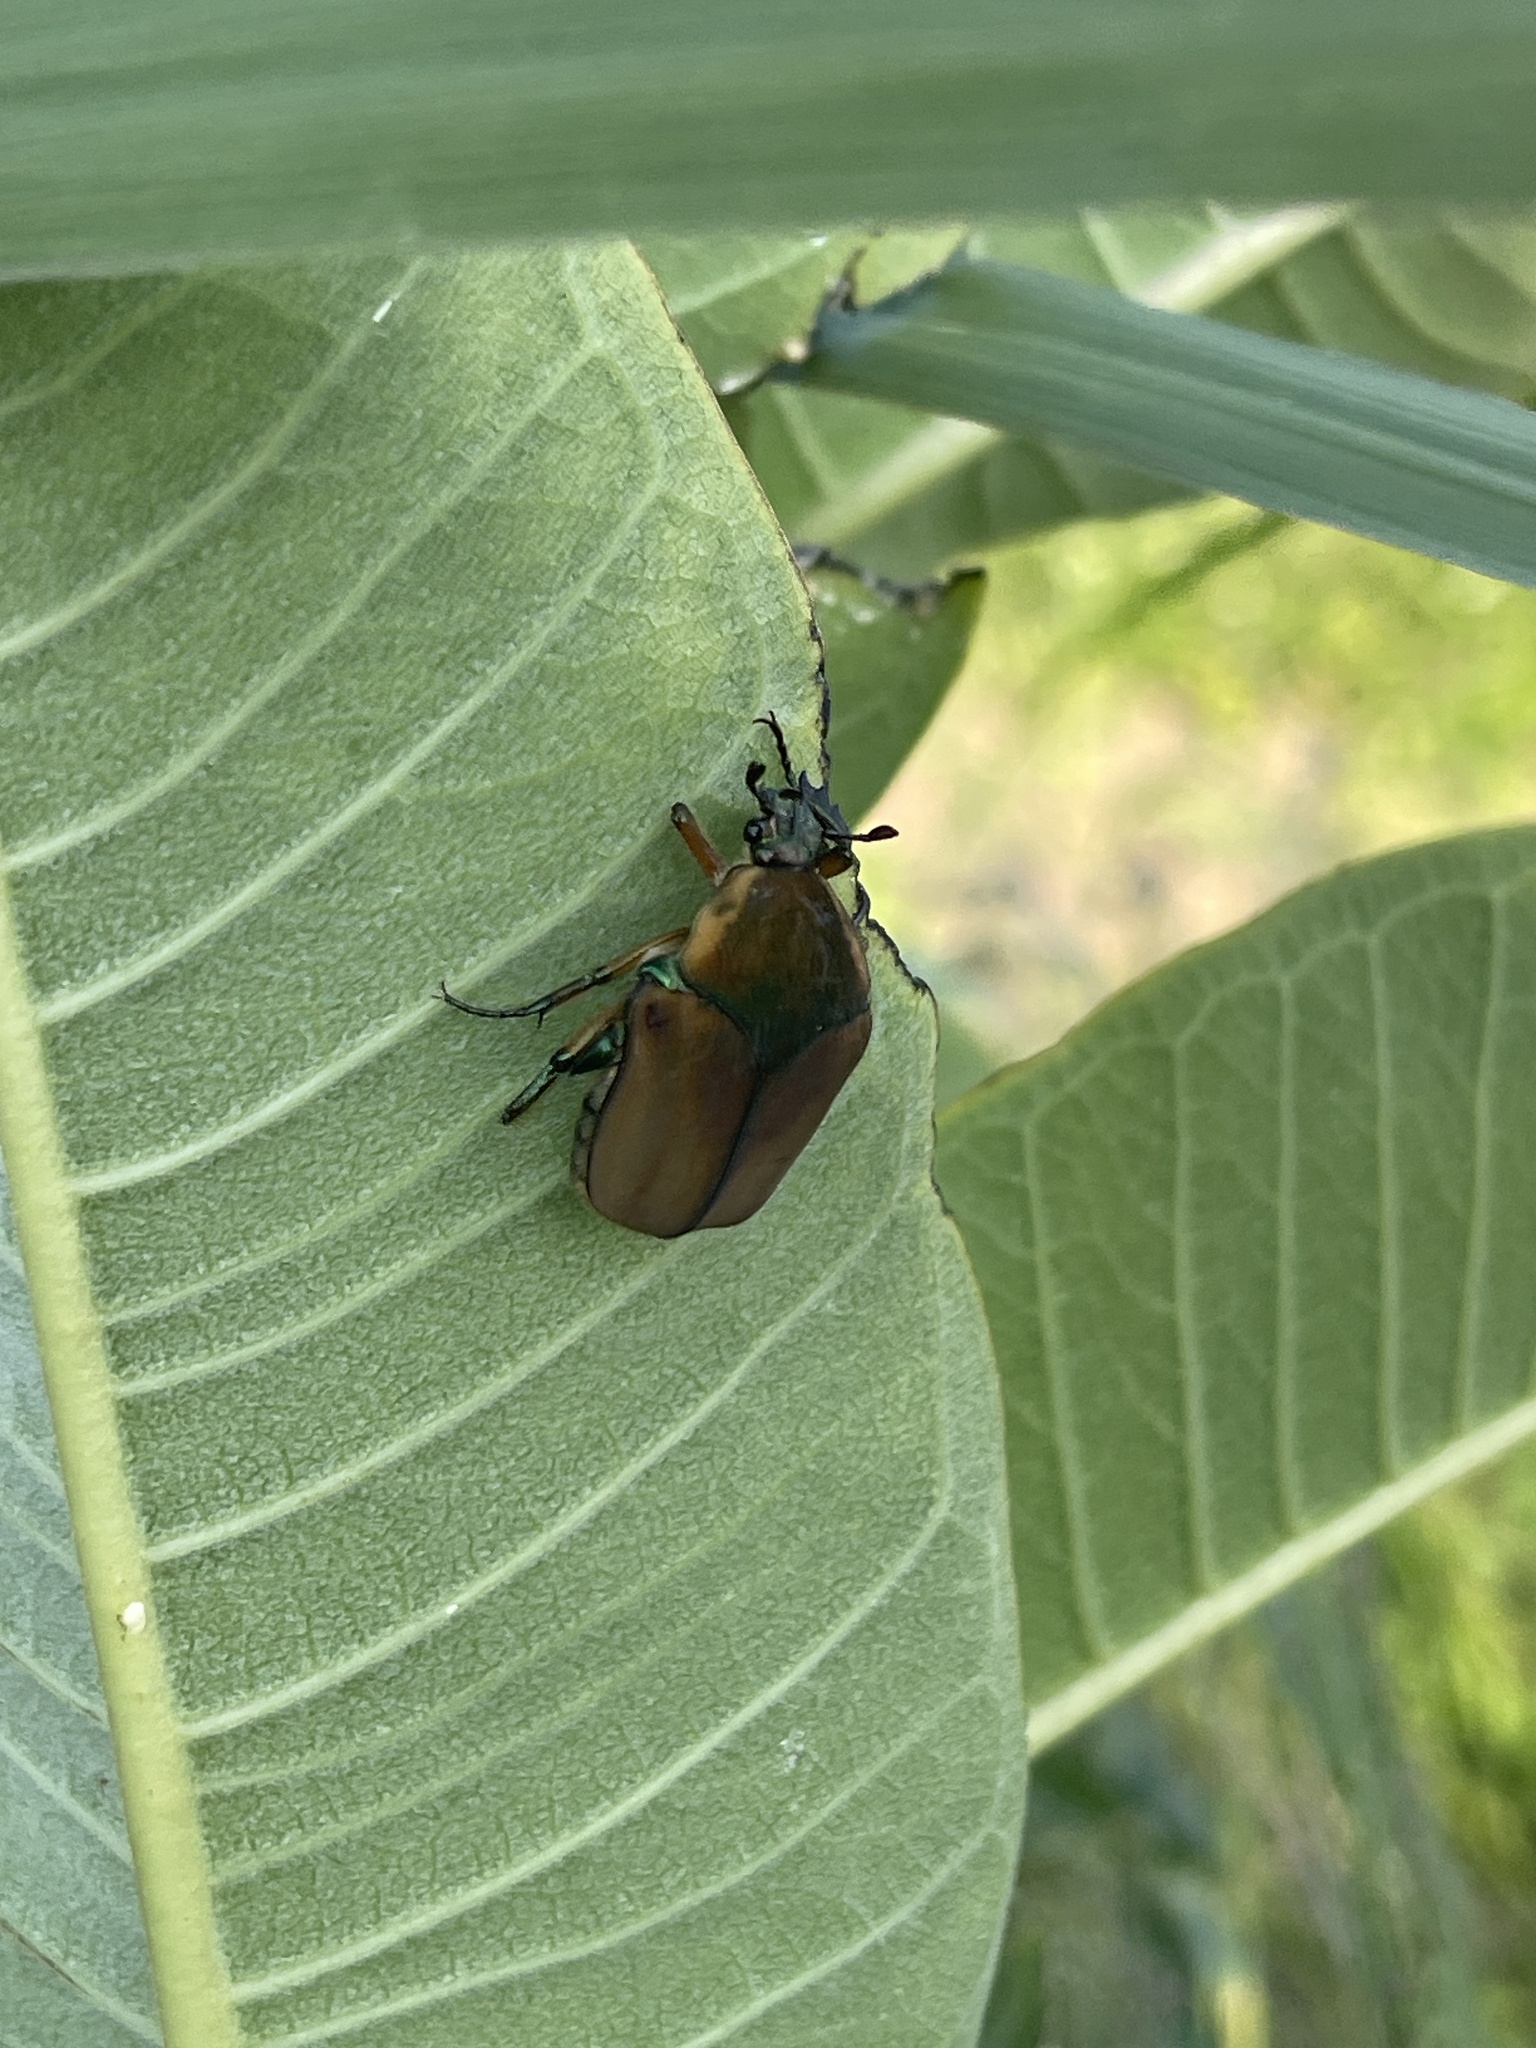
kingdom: Animalia
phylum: Arthropoda
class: Insecta
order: Coleoptera
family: Scarabaeidae
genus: Cotinis
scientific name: Cotinis nitida
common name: Common green june beetle
